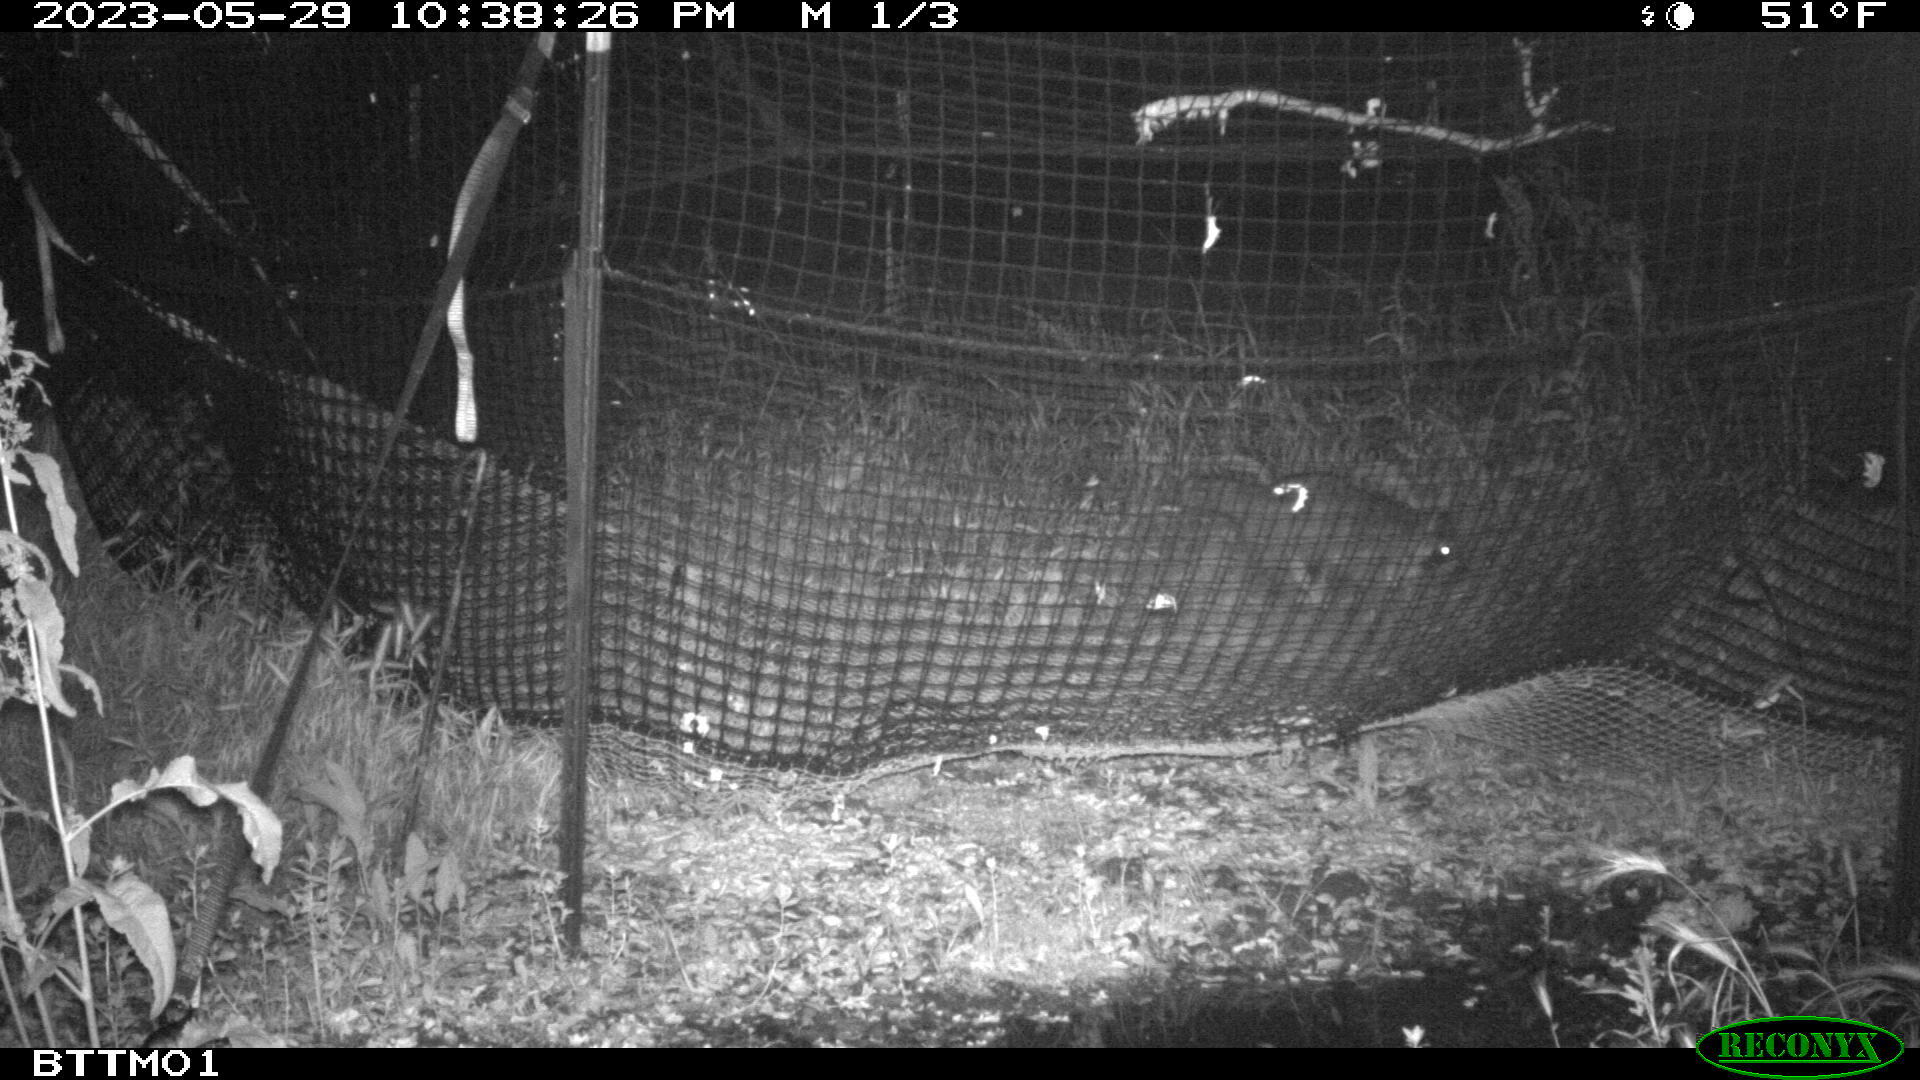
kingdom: Animalia
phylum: Chordata
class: Mammalia
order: Carnivora
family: Procyonidae
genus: Procyon
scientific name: Procyon lotor
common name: Raccoon
